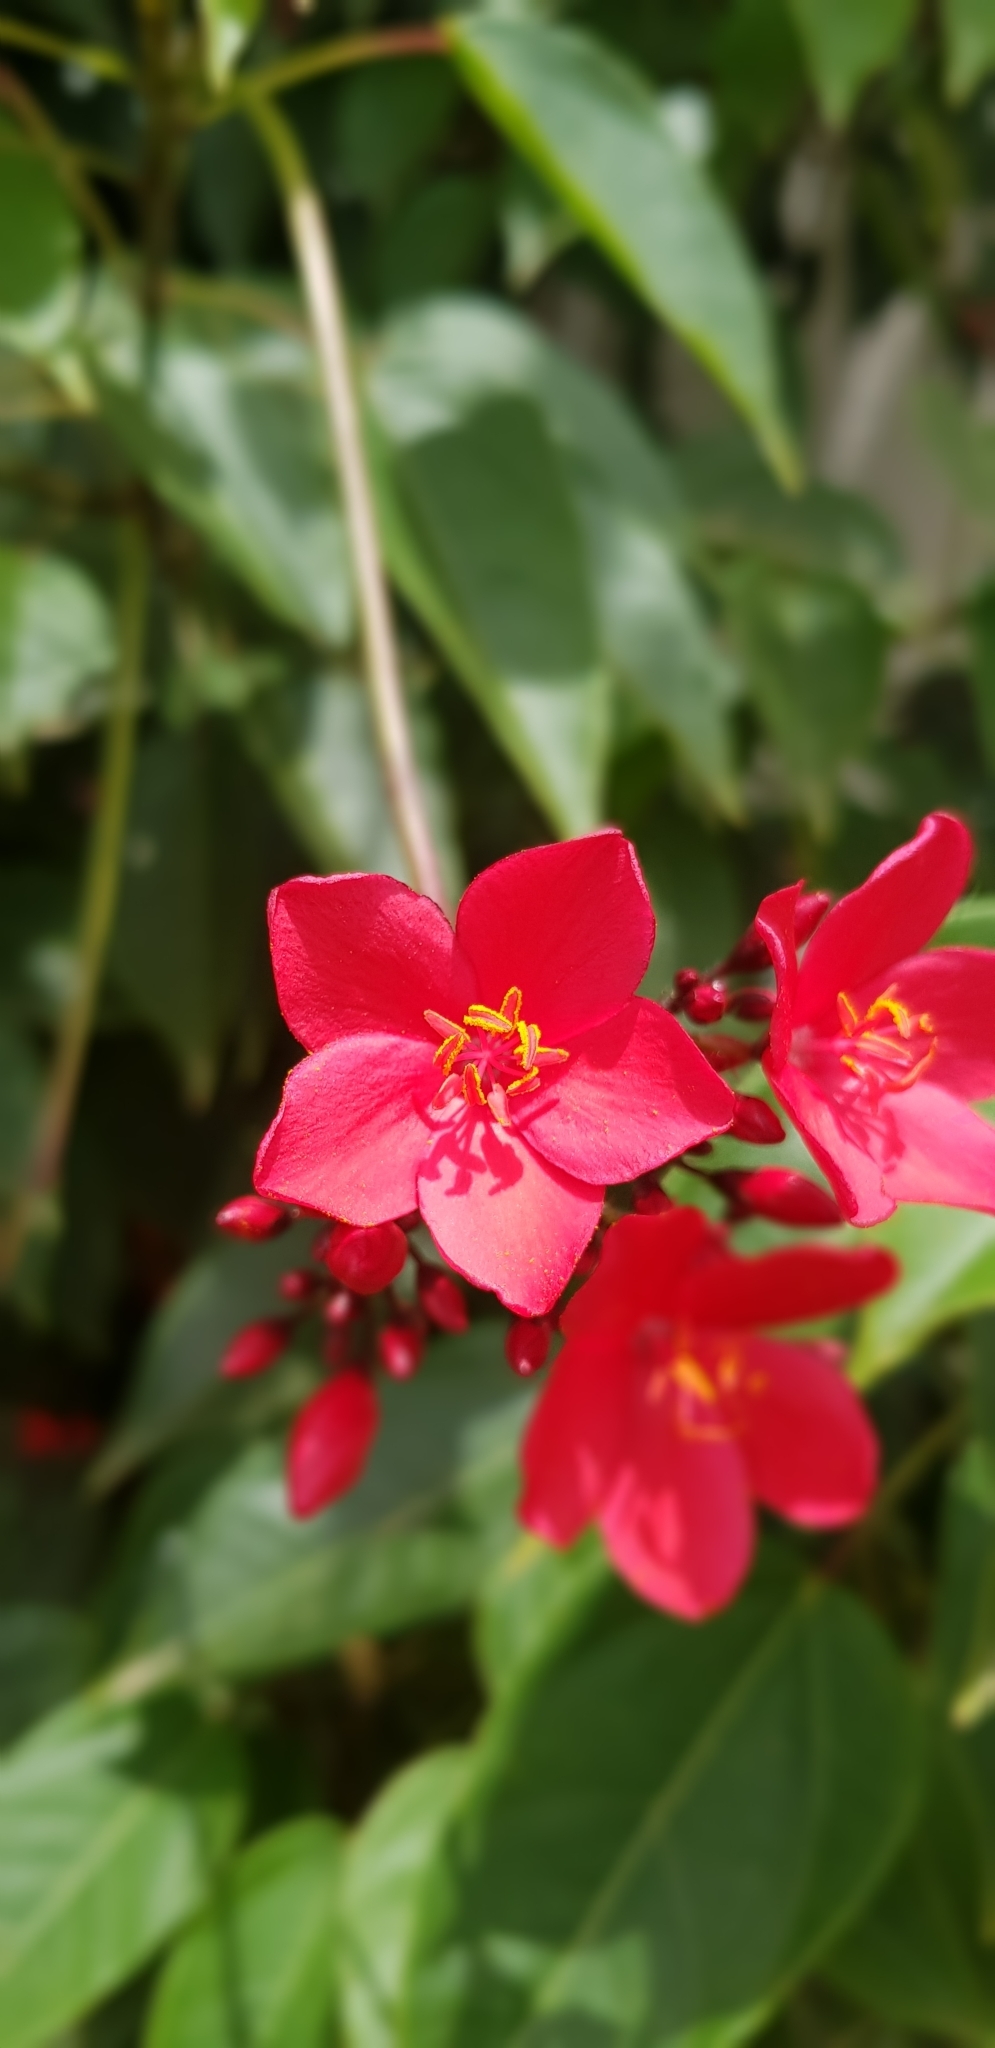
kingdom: Plantae
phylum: Tracheophyta
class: Magnoliopsida
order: Malpighiales
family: Euphorbiaceae
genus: Jatropha
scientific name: Jatropha integerrima
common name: Peregrina
